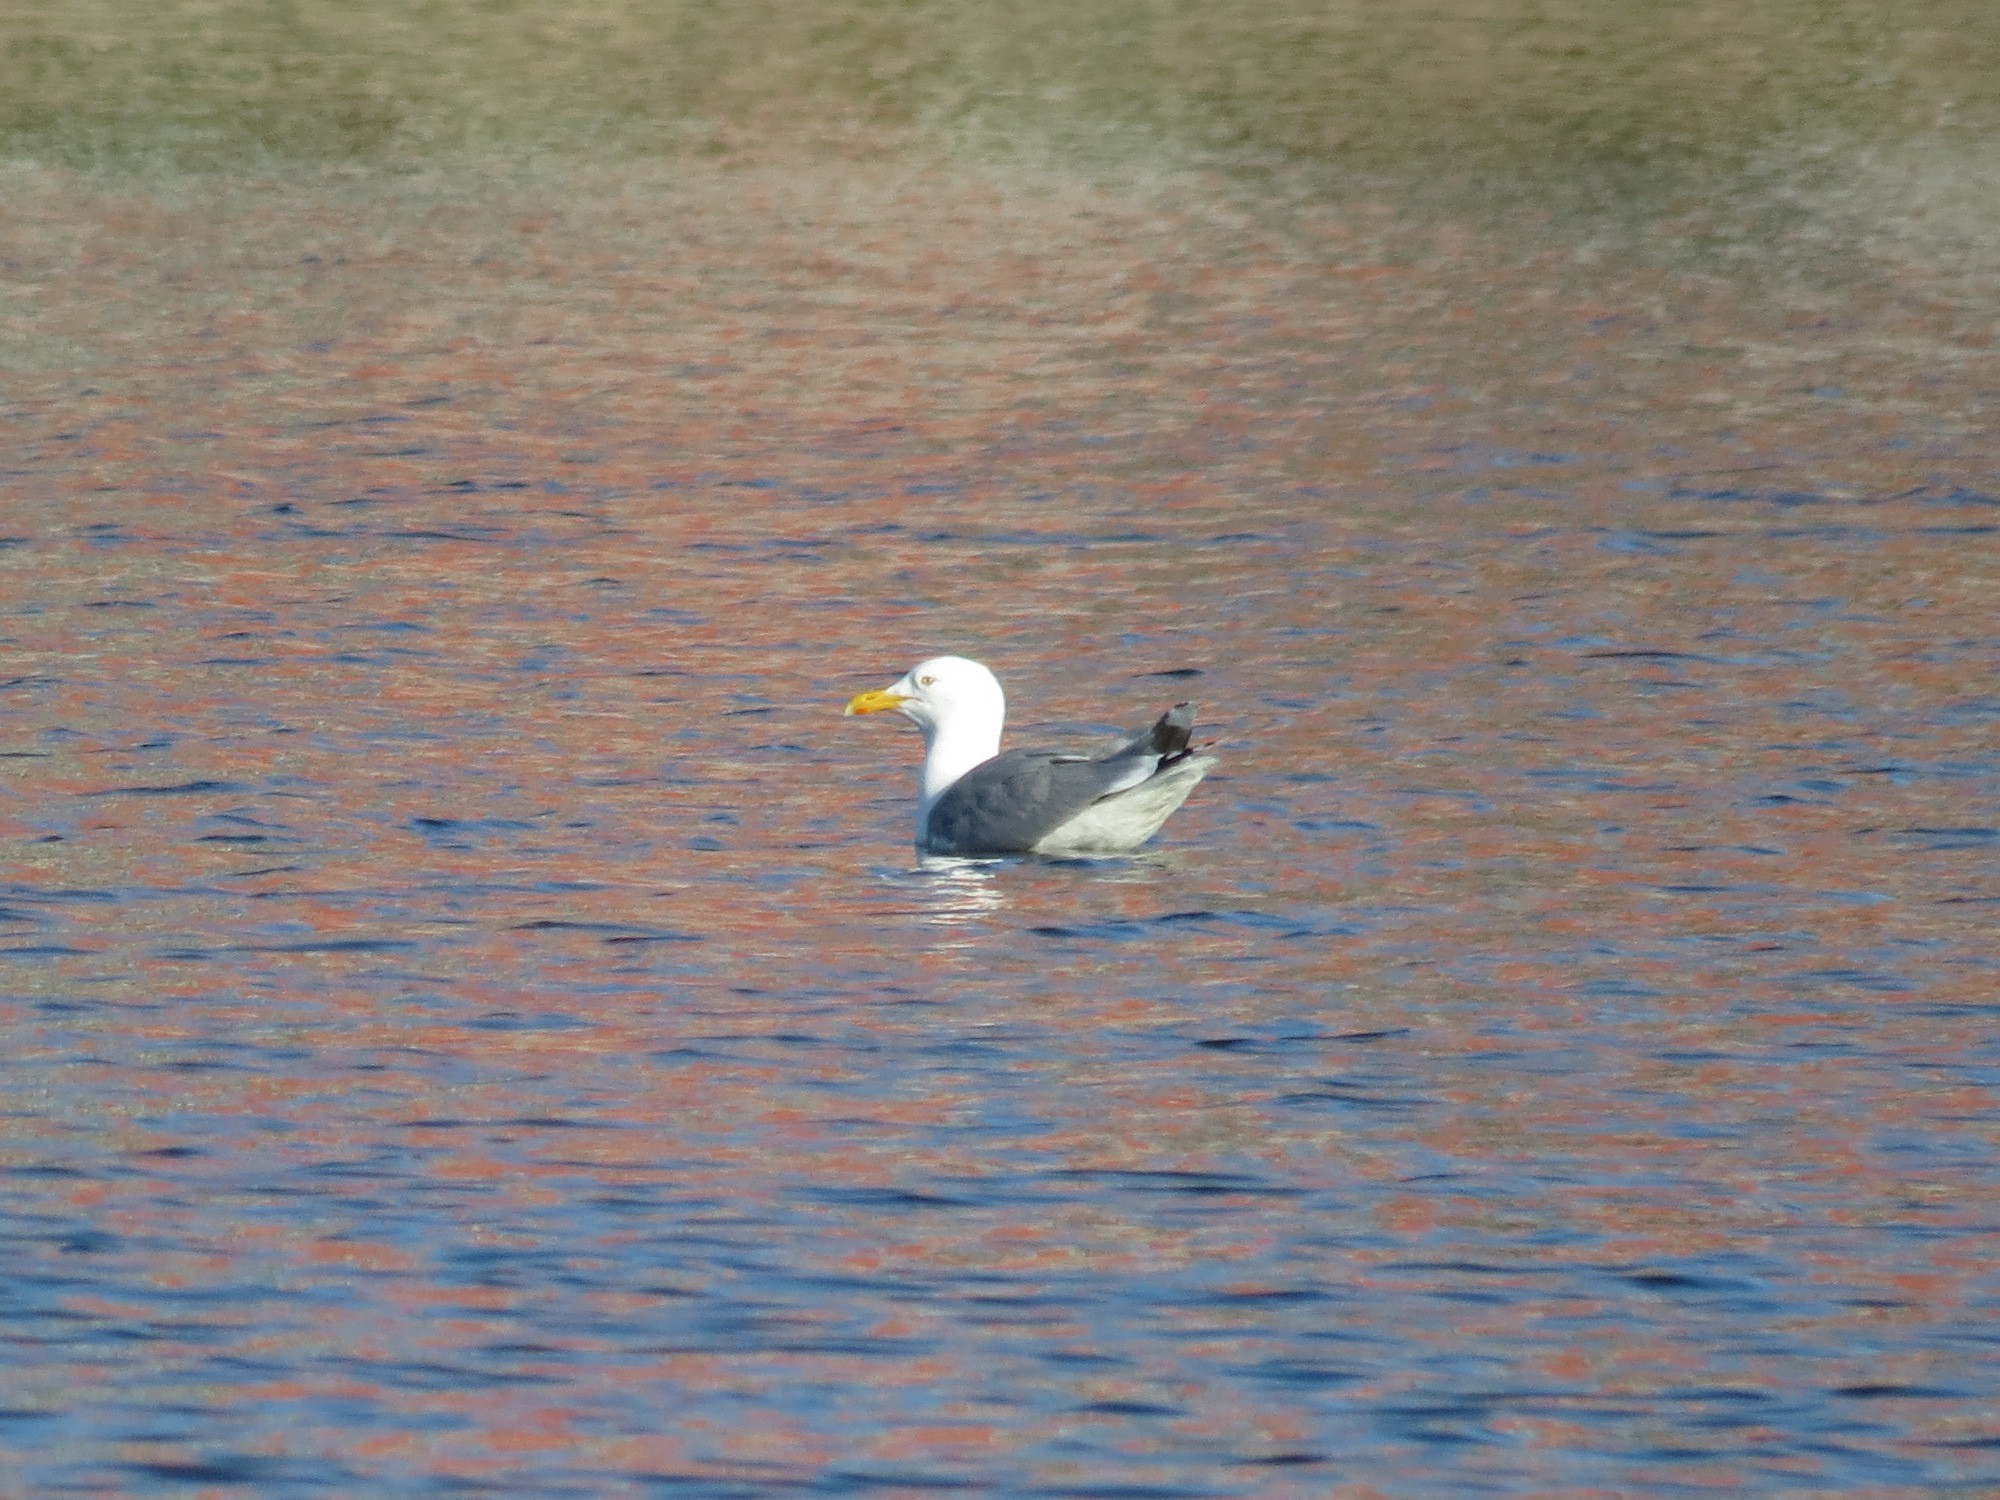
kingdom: Animalia
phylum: Chordata
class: Aves
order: Charadriiformes
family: Laridae
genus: Larus
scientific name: Larus argentatus
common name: Herring gull
